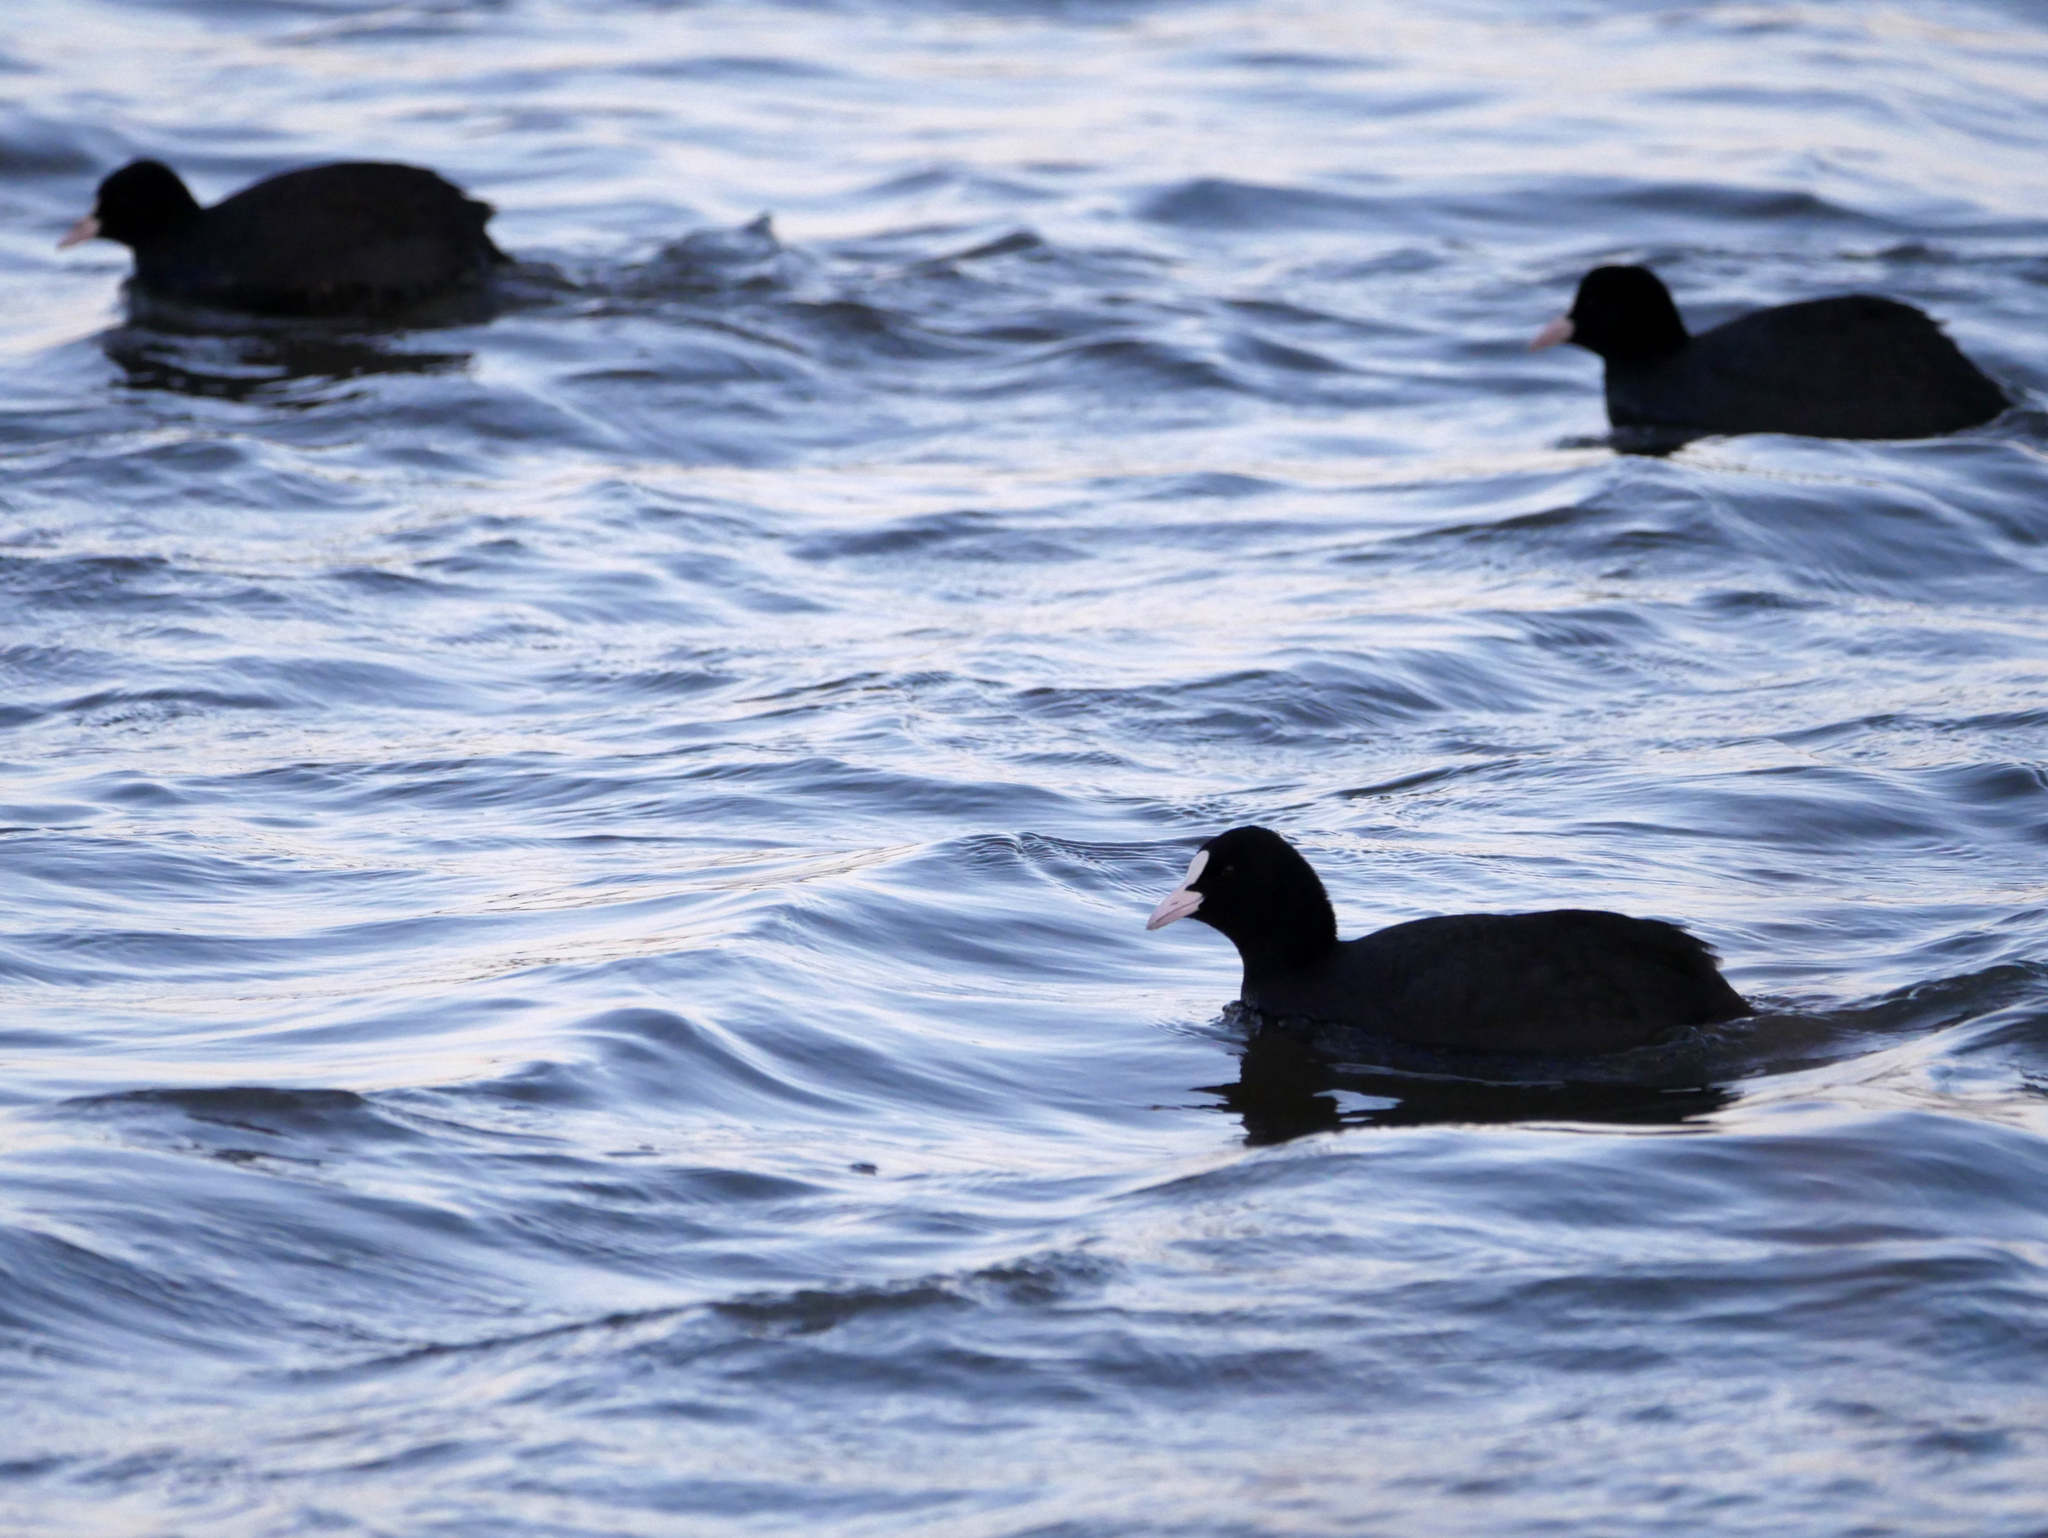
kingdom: Animalia
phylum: Chordata
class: Aves
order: Gruiformes
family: Rallidae
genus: Fulica
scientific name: Fulica atra
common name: Eurasian coot
